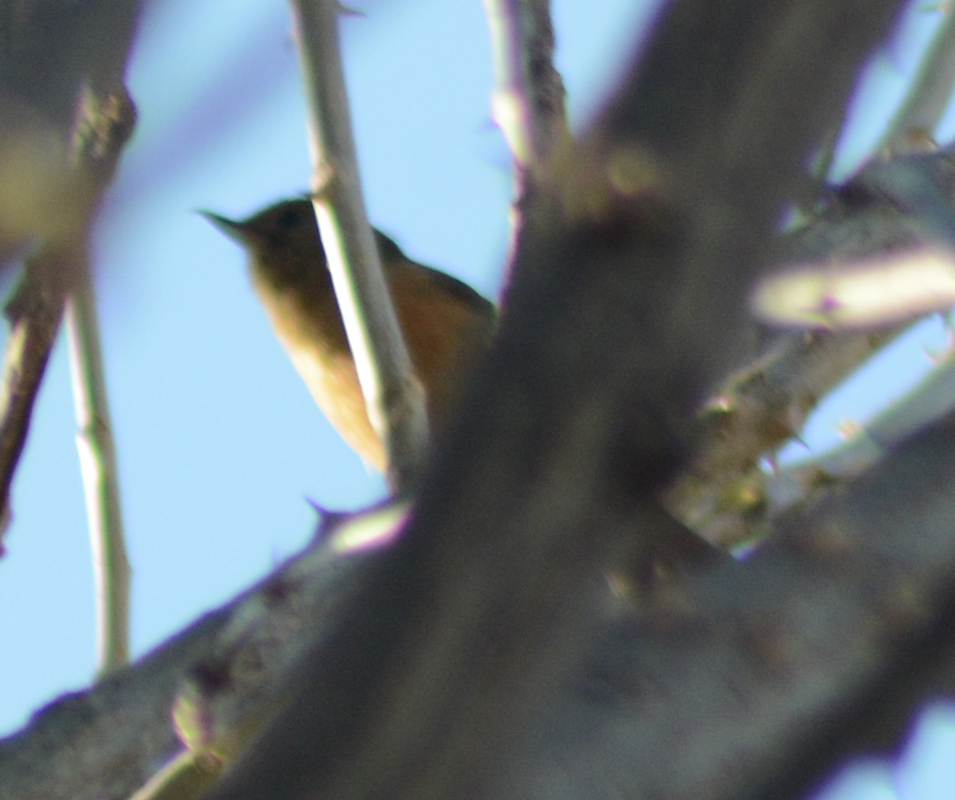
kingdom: Animalia
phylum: Chordata
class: Aves
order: Passeriformes
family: Thraupidae
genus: Diglossa
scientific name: Diglossa baritula
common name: Cinnamon-bellied flowerpiercer
